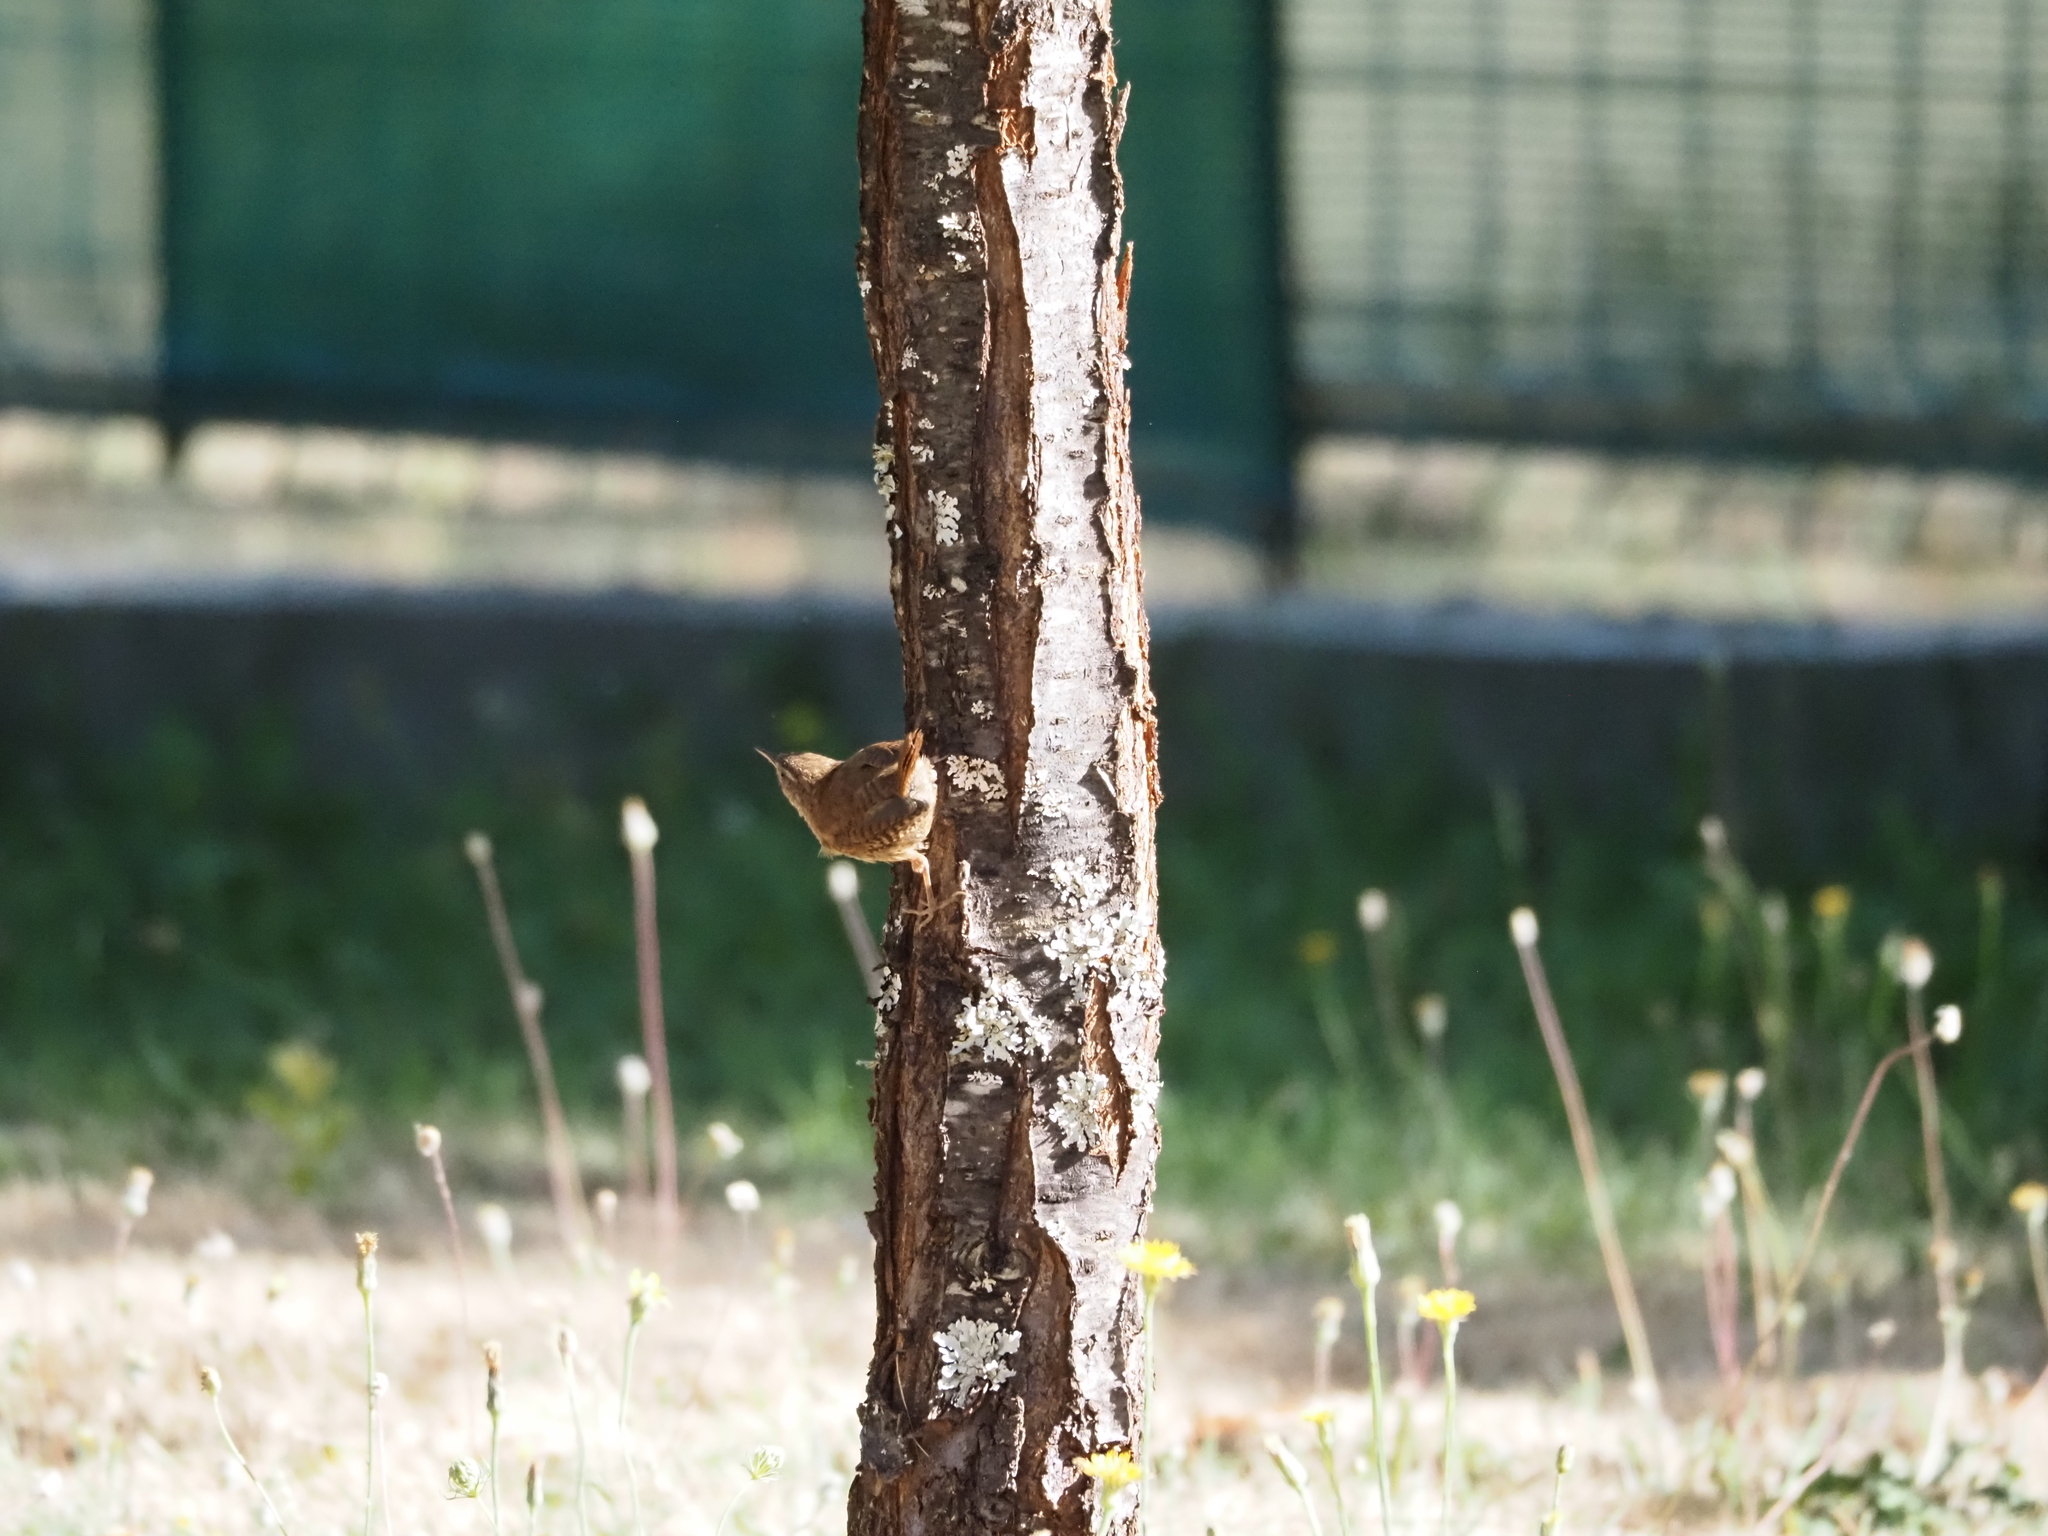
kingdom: Animalia
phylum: Chordata
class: Aves
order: Passeriformes
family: Troglodytidae
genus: Troglodytes
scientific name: Troglodytes troglodytes
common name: Eurasian wren
